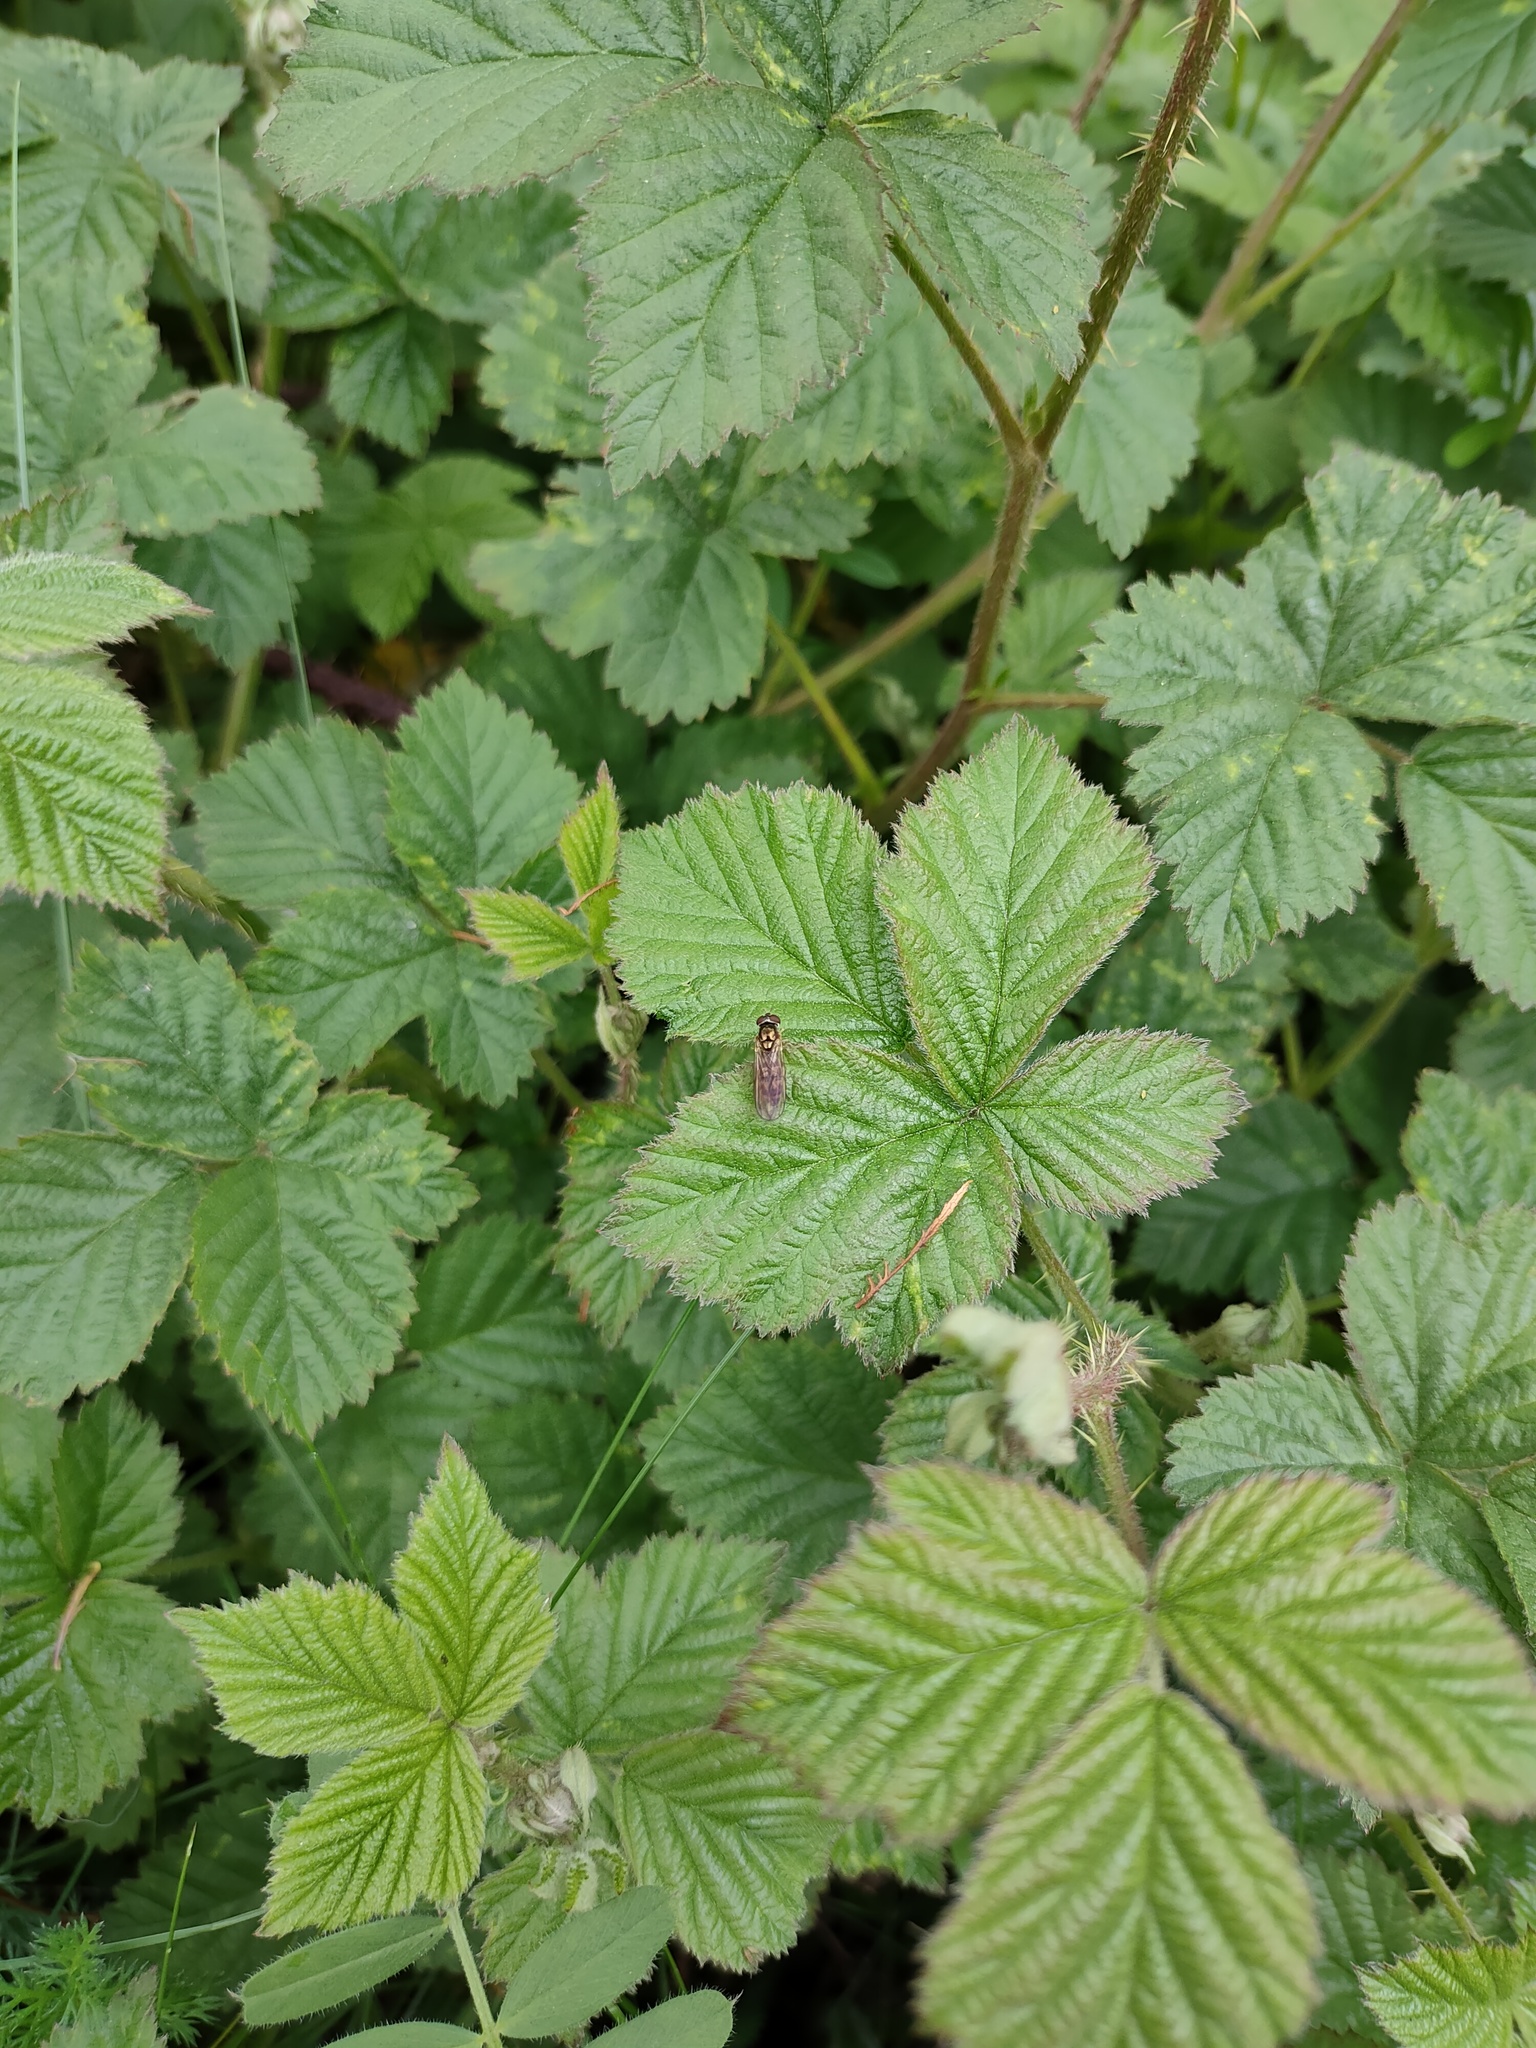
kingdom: Animalia
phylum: Arthropoda
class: Insecta
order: Diptera
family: Syrphidae
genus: Melanostoma
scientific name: Melanostoma
